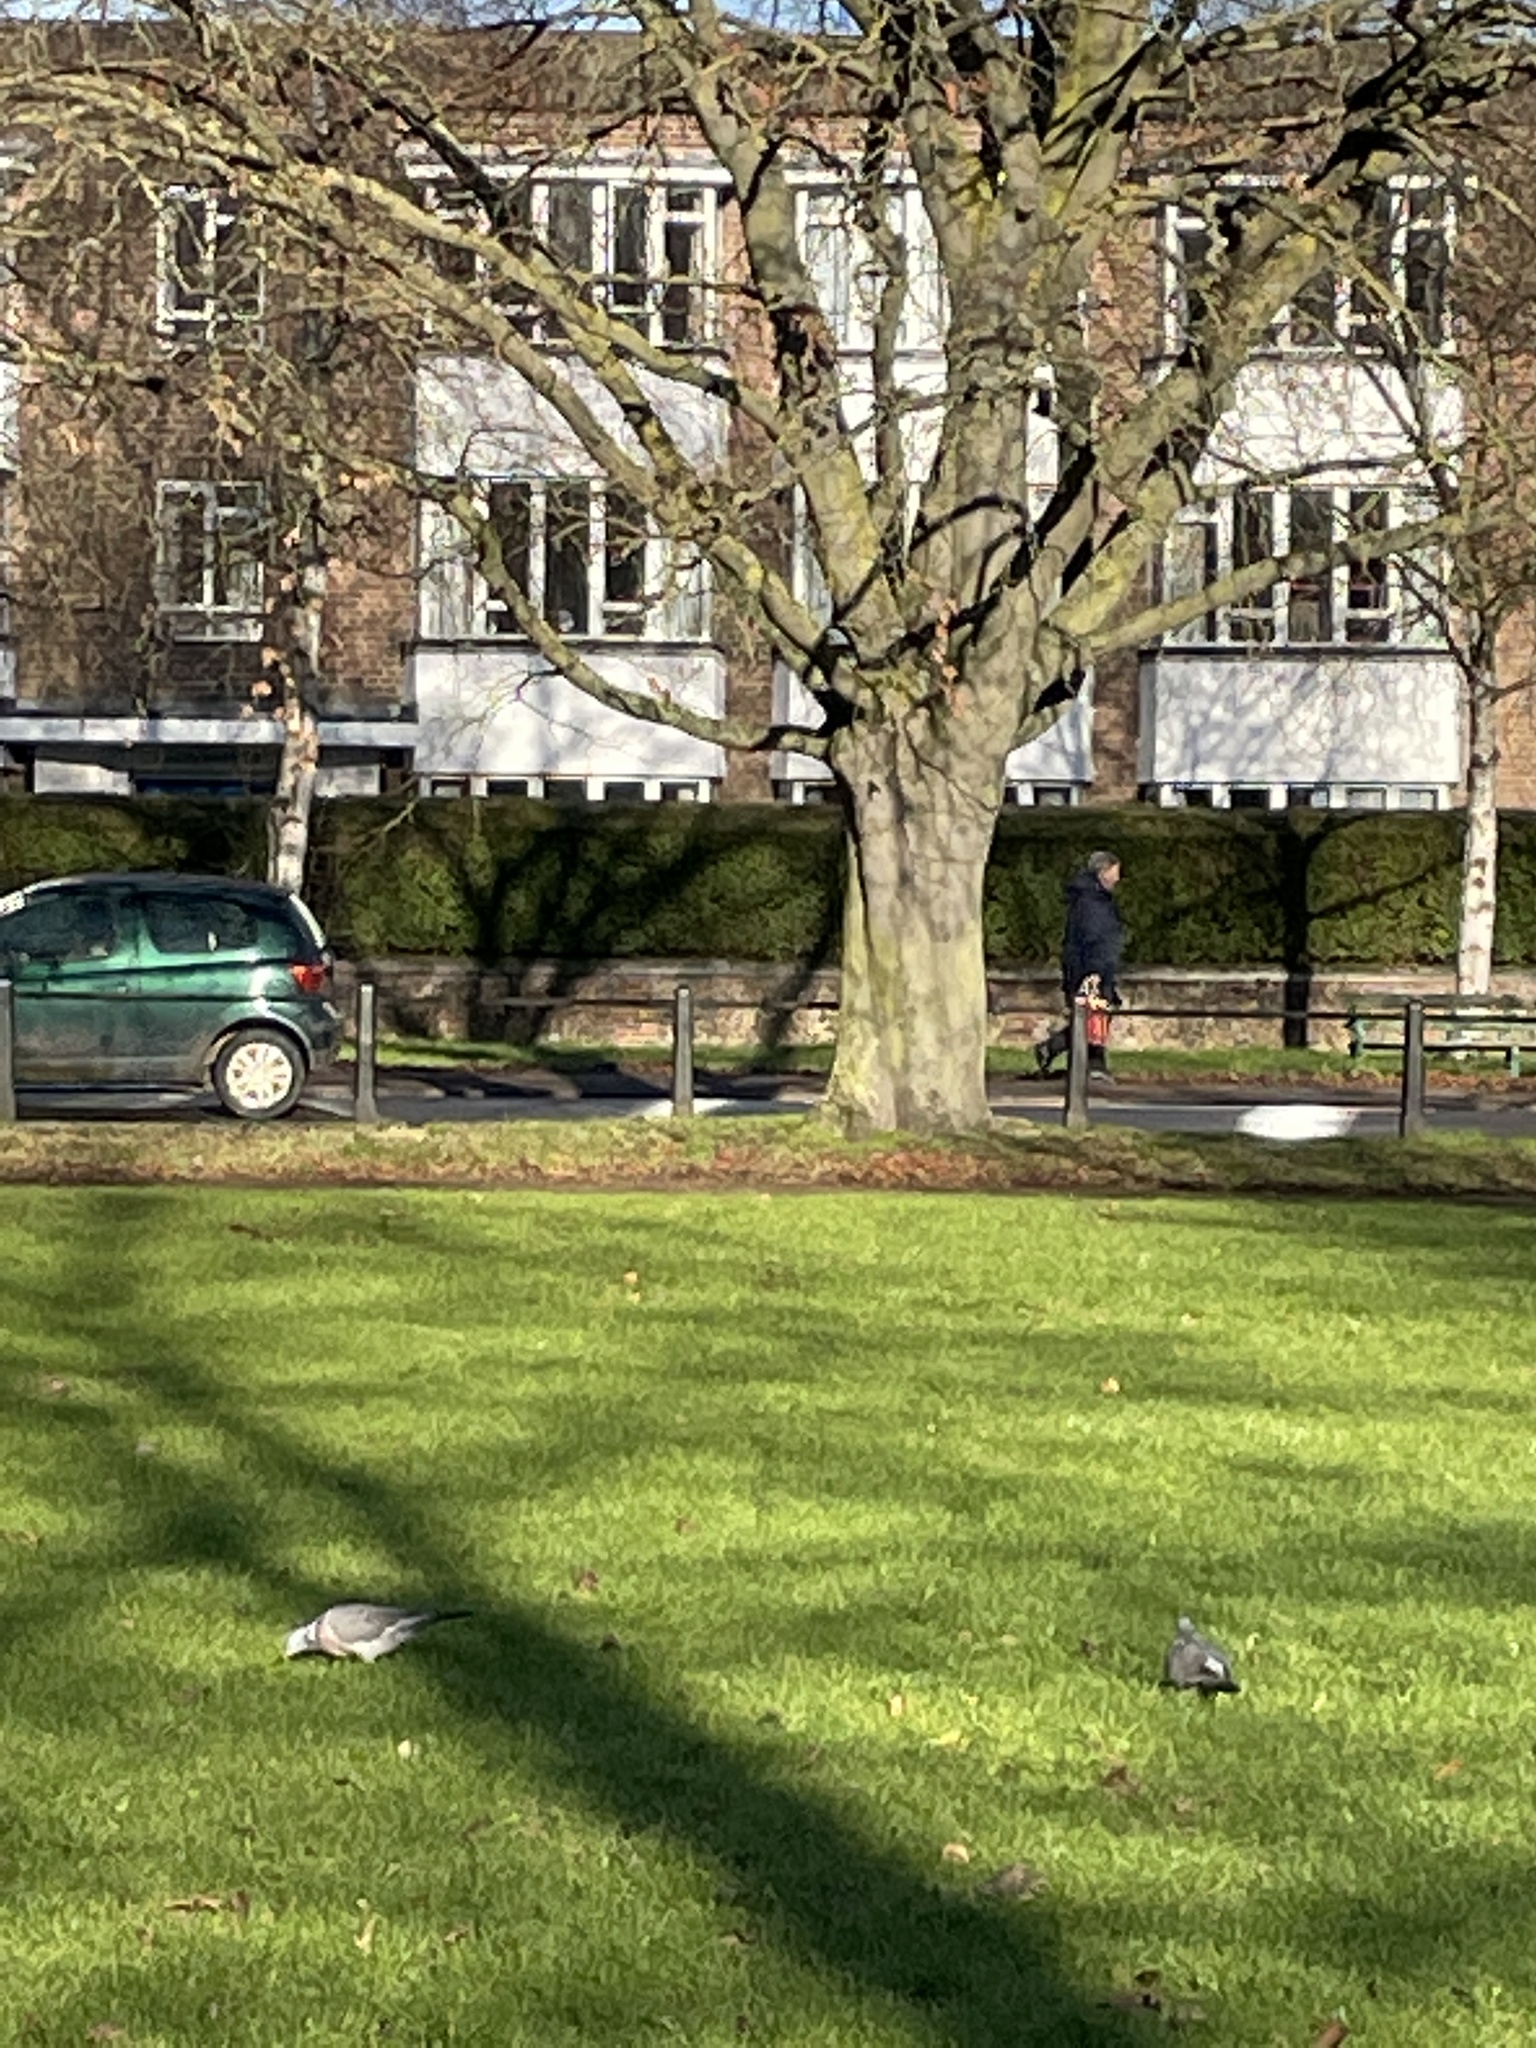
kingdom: Animalia
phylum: Chordata
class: Aves
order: Columbiformes
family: Columbidae
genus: Columba
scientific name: Columba palumbus
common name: Common wood pigeon
